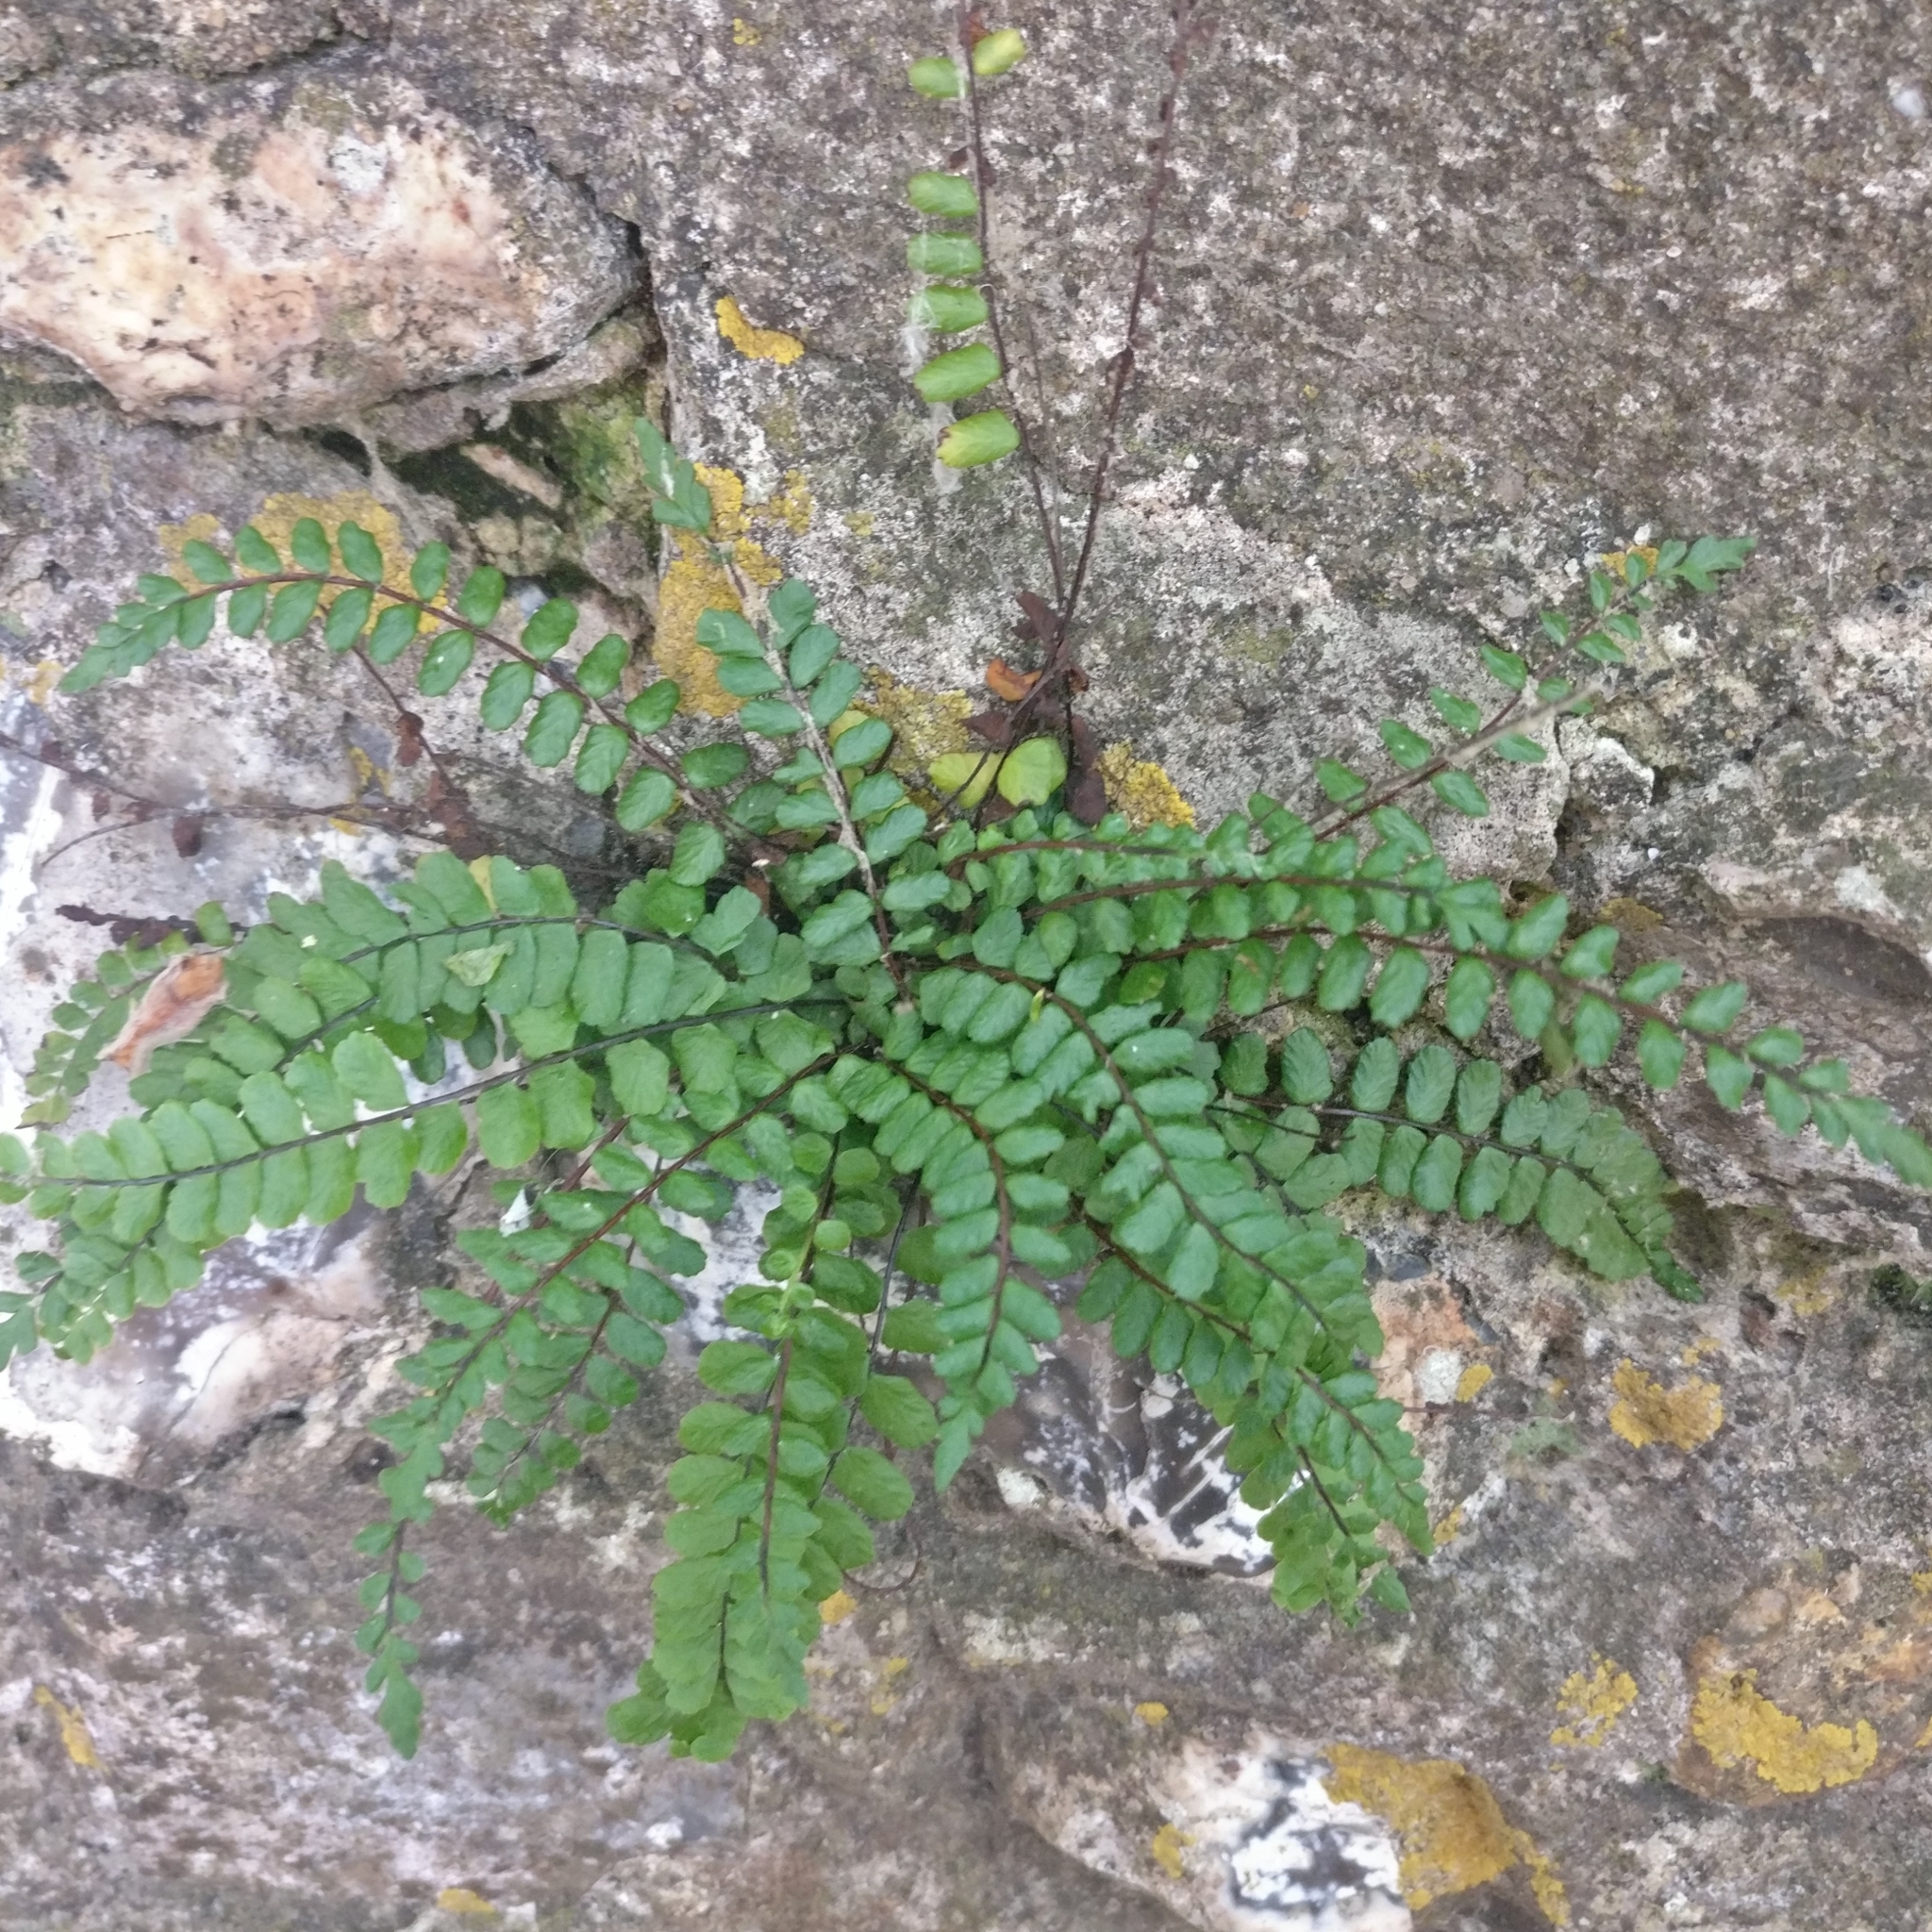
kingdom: Plantae
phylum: Tracheophyta
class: Polypodiopsida
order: Polypodiales
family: Aspleniaceae
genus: Asplenium
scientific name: Asplenium trichomanes
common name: Maidenhair spleenwort
